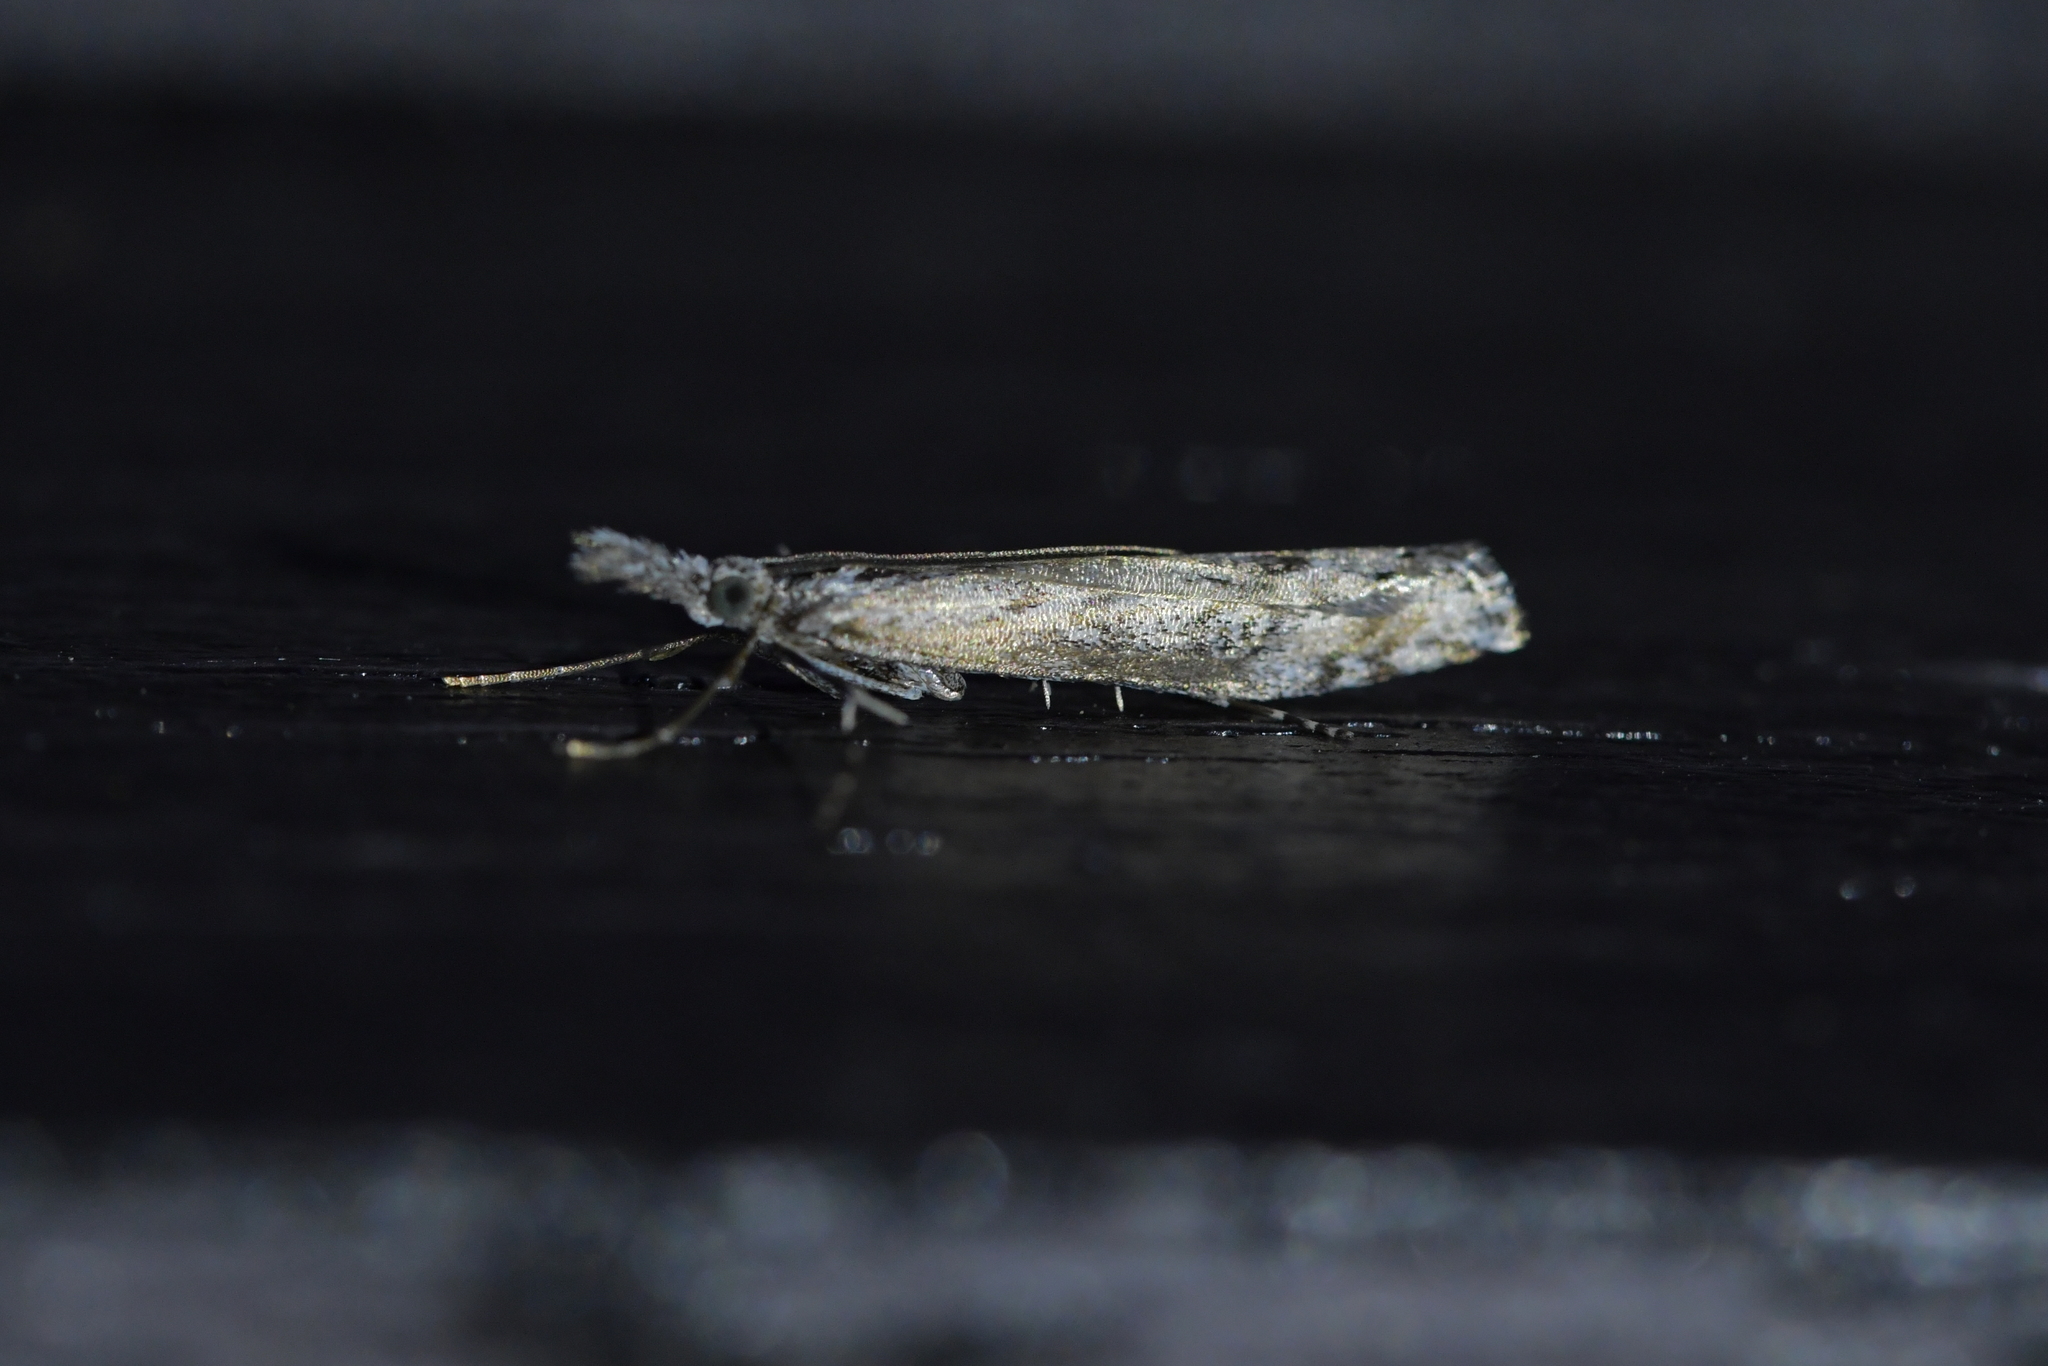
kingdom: Animalia
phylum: Arthropoda
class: Insecta
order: Lepidoptera
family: Crambidae
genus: Orocrambus
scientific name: Orocrambus cyclopicus
